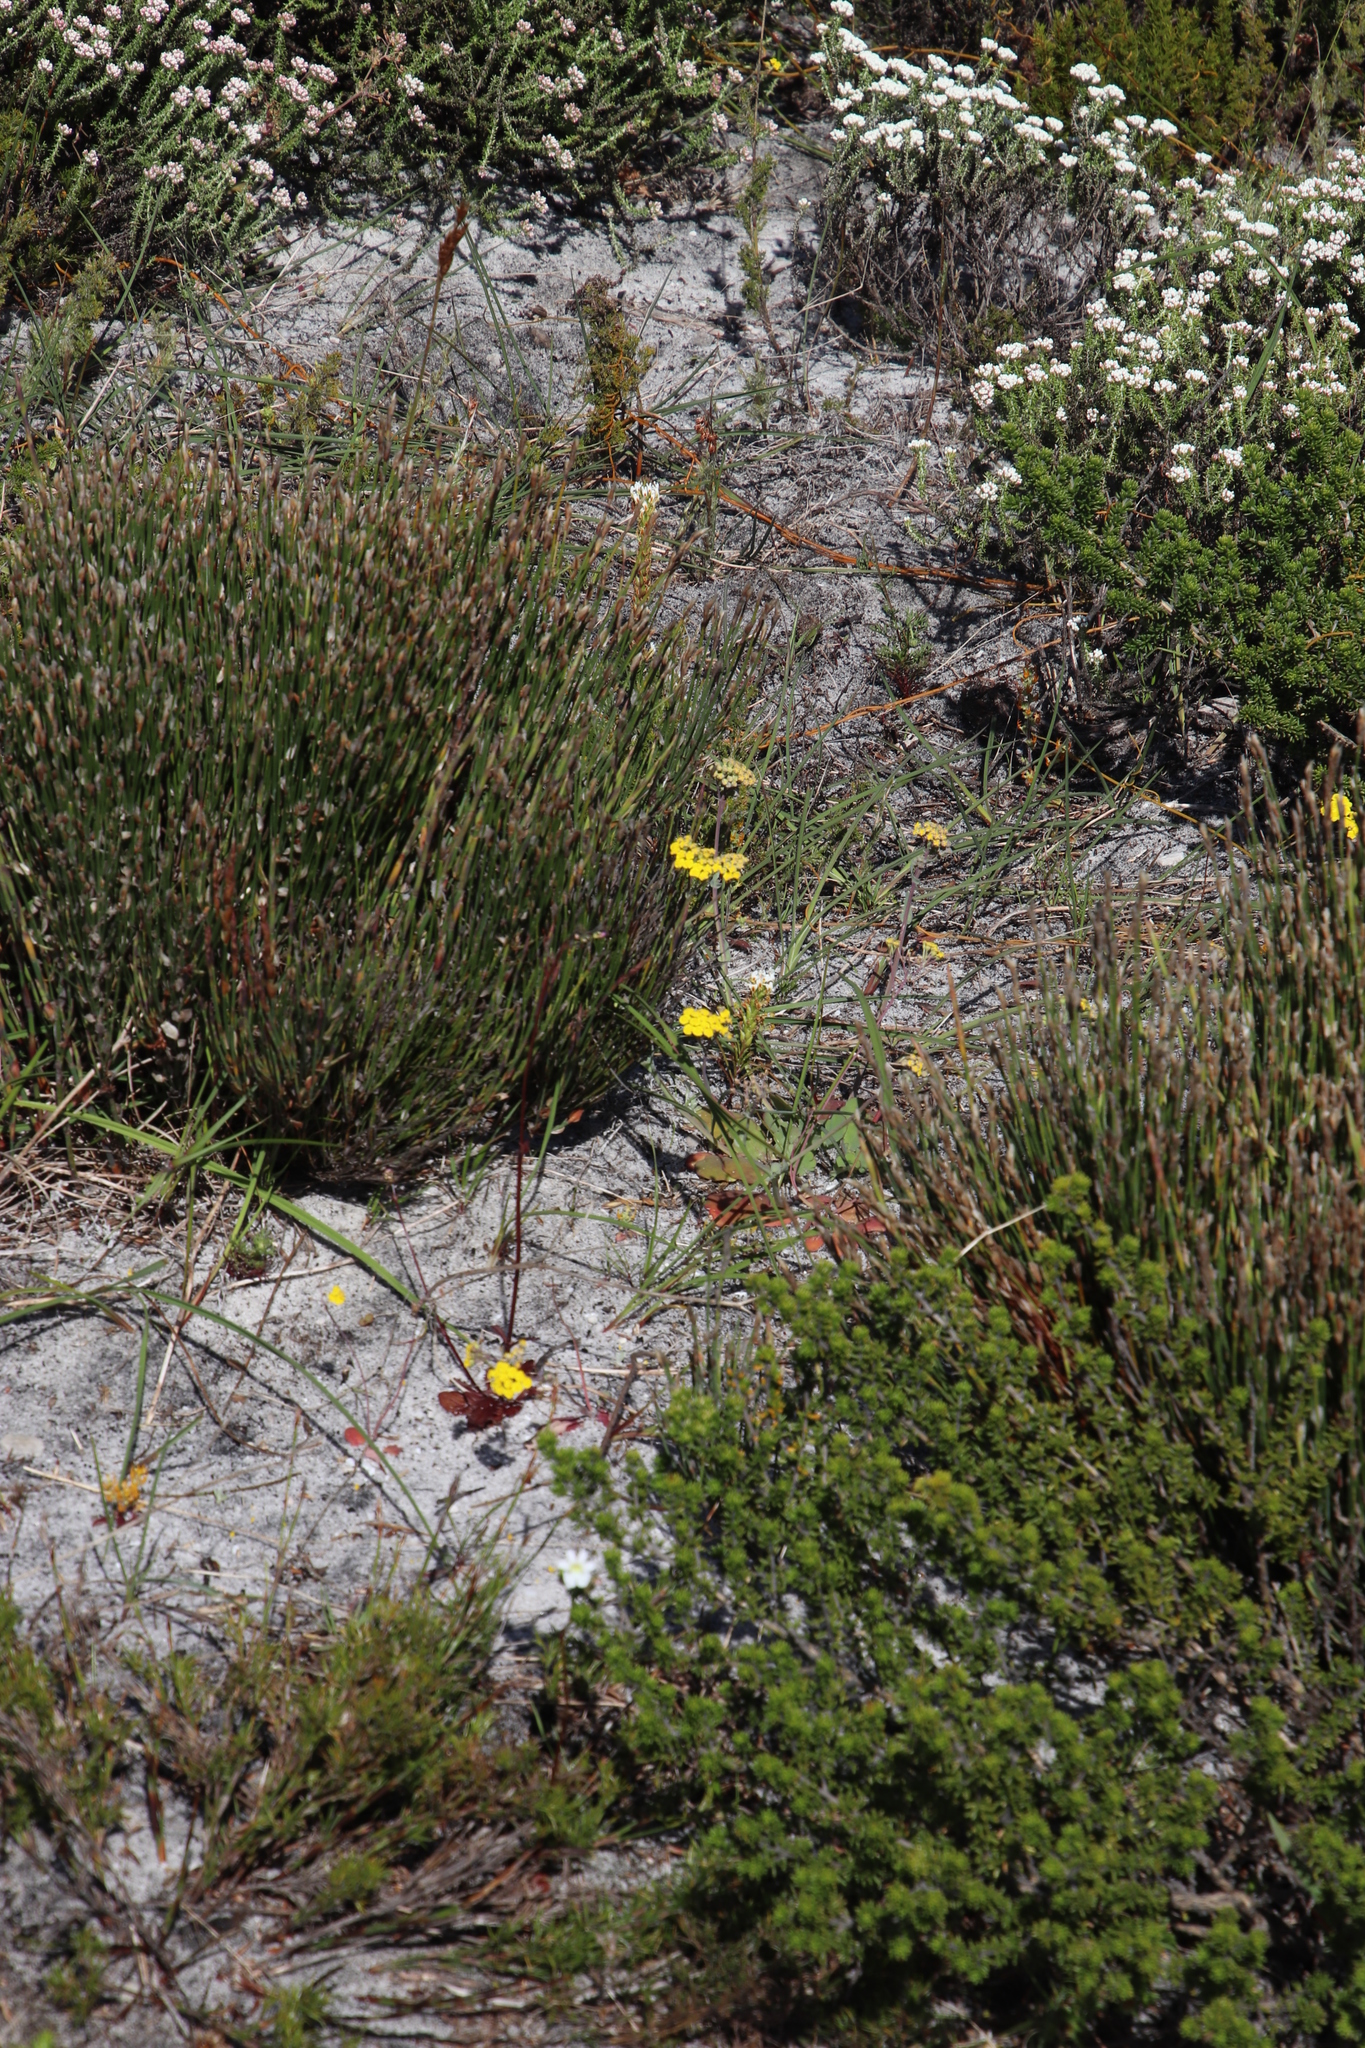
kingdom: Plantae
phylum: Tracheophyta
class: Magnoliopsida
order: Asterales
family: Asteraceae
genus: Gymnodiscus
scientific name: Gymnodiscus capillaris
